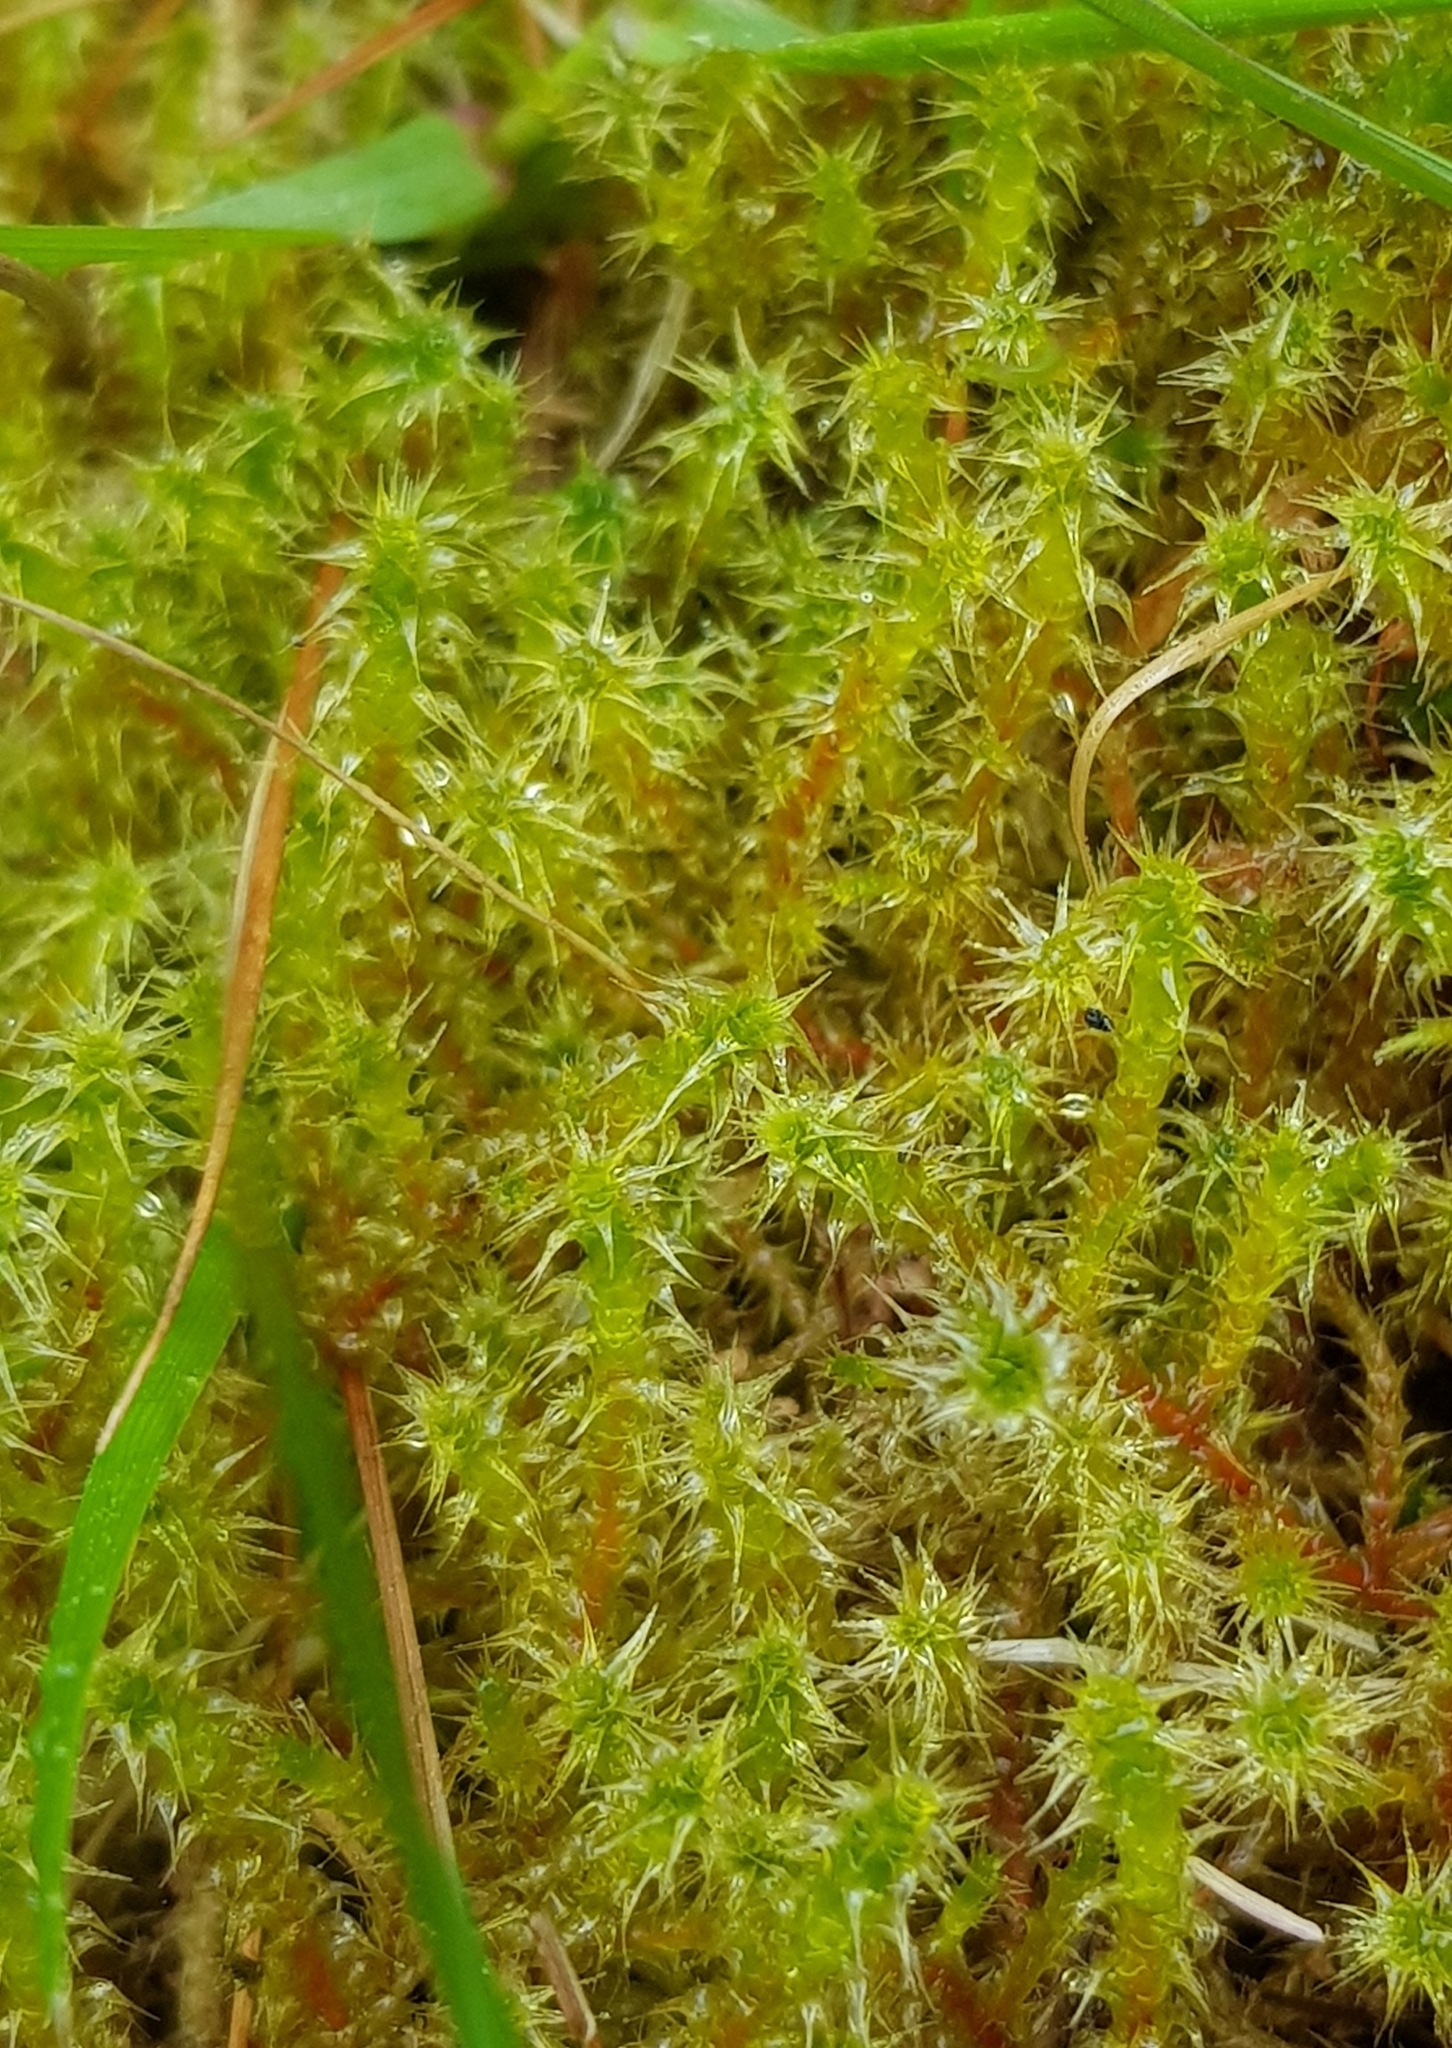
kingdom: Plantae
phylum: Bryophyta
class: Bryopsida
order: Hypnales
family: Hylocomiaceae
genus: Rhytidiadelphus
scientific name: Rhytidiadelphus squarrosus
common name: Springy turf-moss
